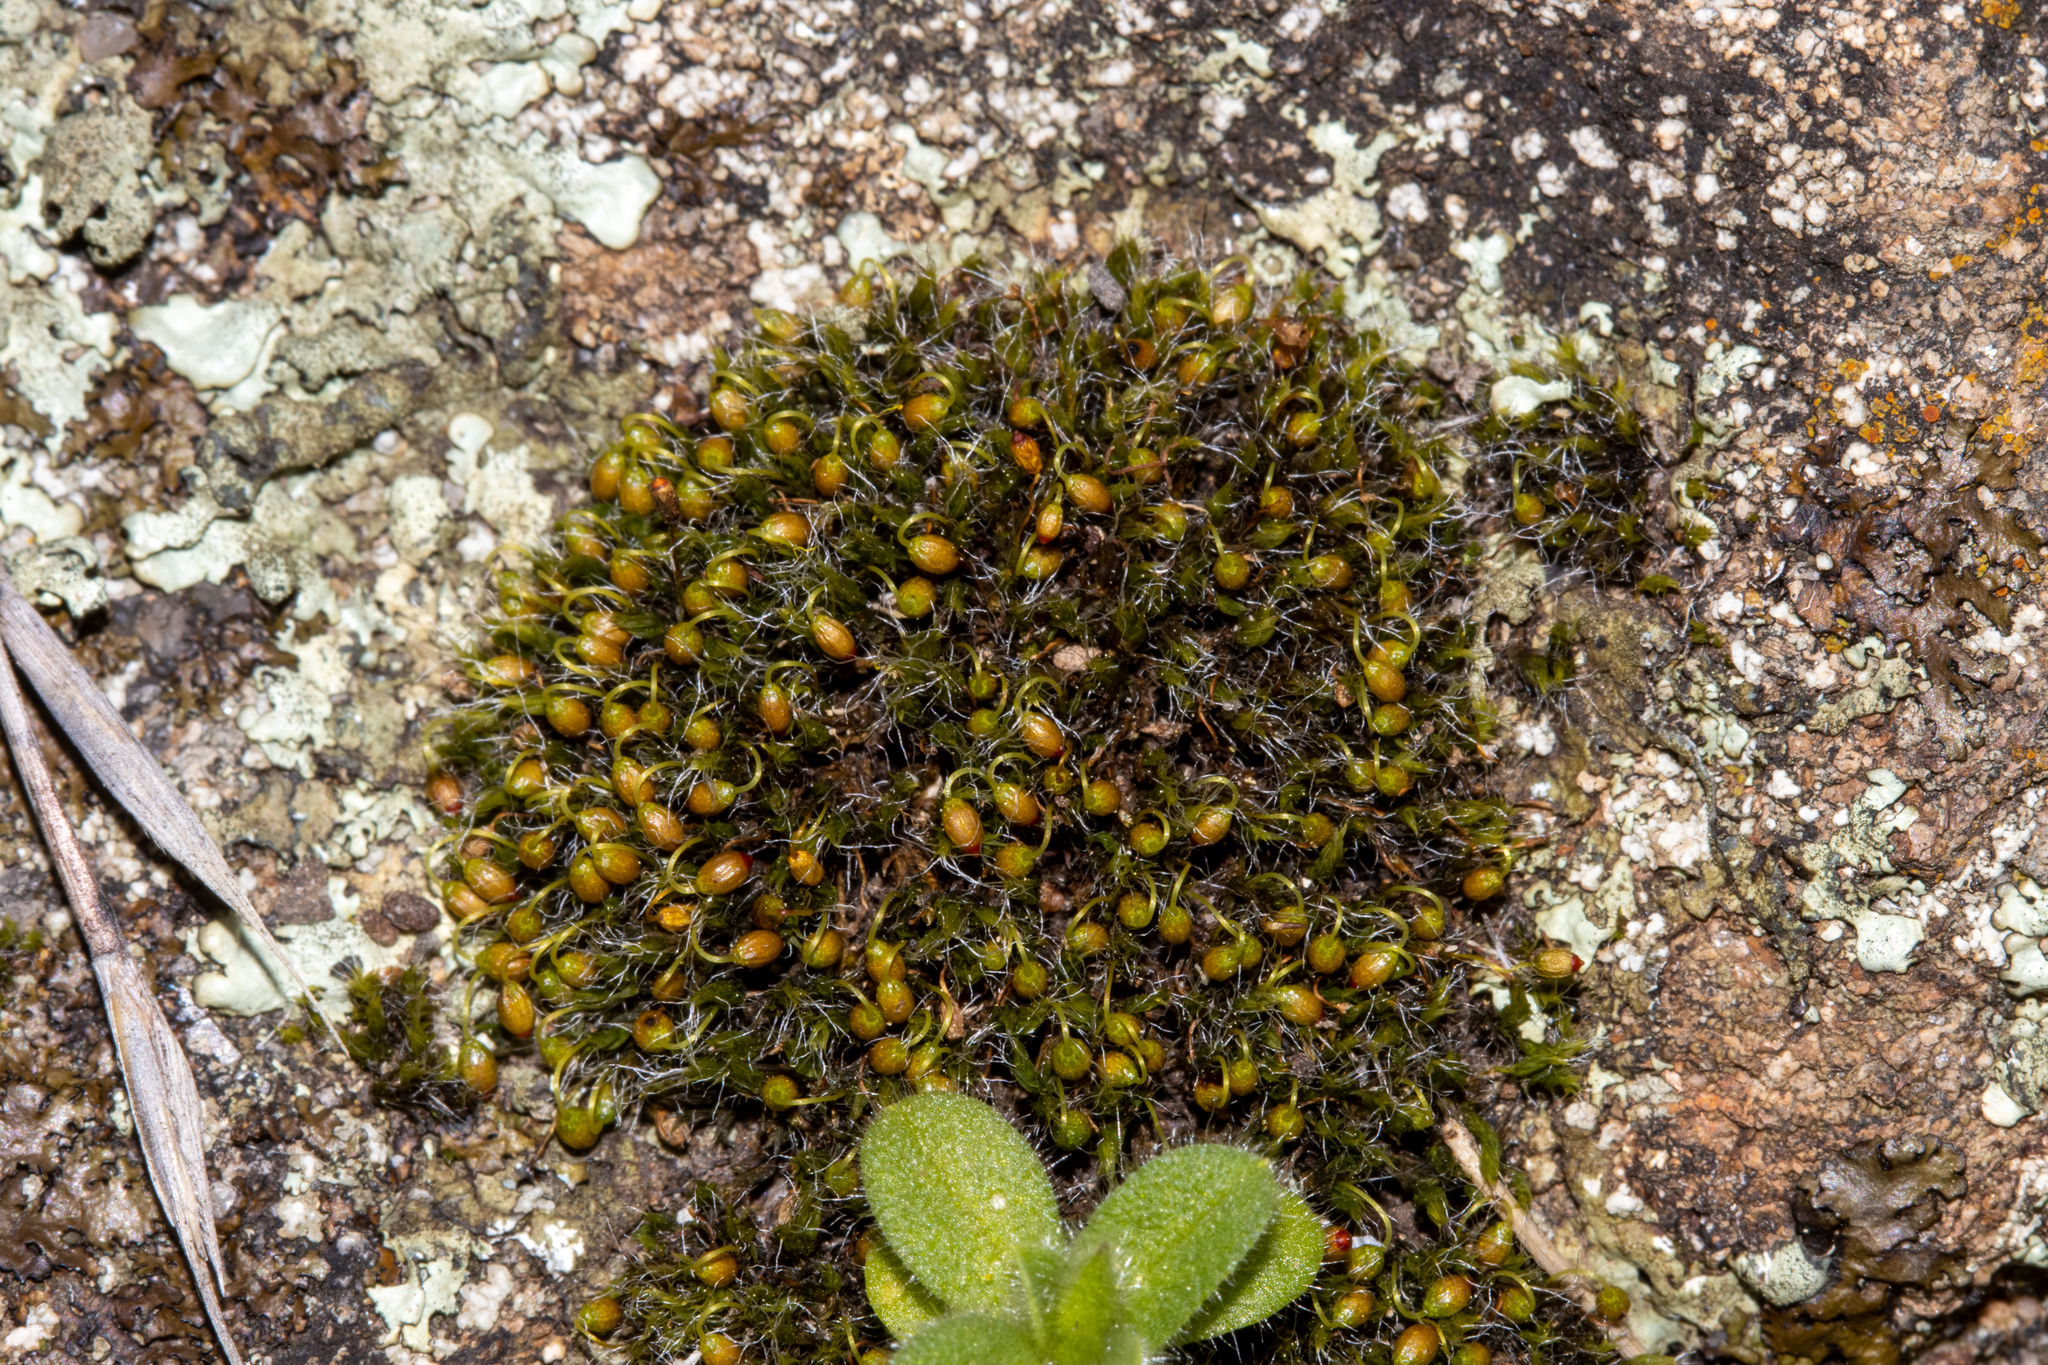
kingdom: Plantae
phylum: Bryophyta
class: Bryopsida
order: Grimmiales
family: Grimmiaceae
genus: Grimmia
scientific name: Grimmia pulvinata
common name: Grey-cushioned grimmia
